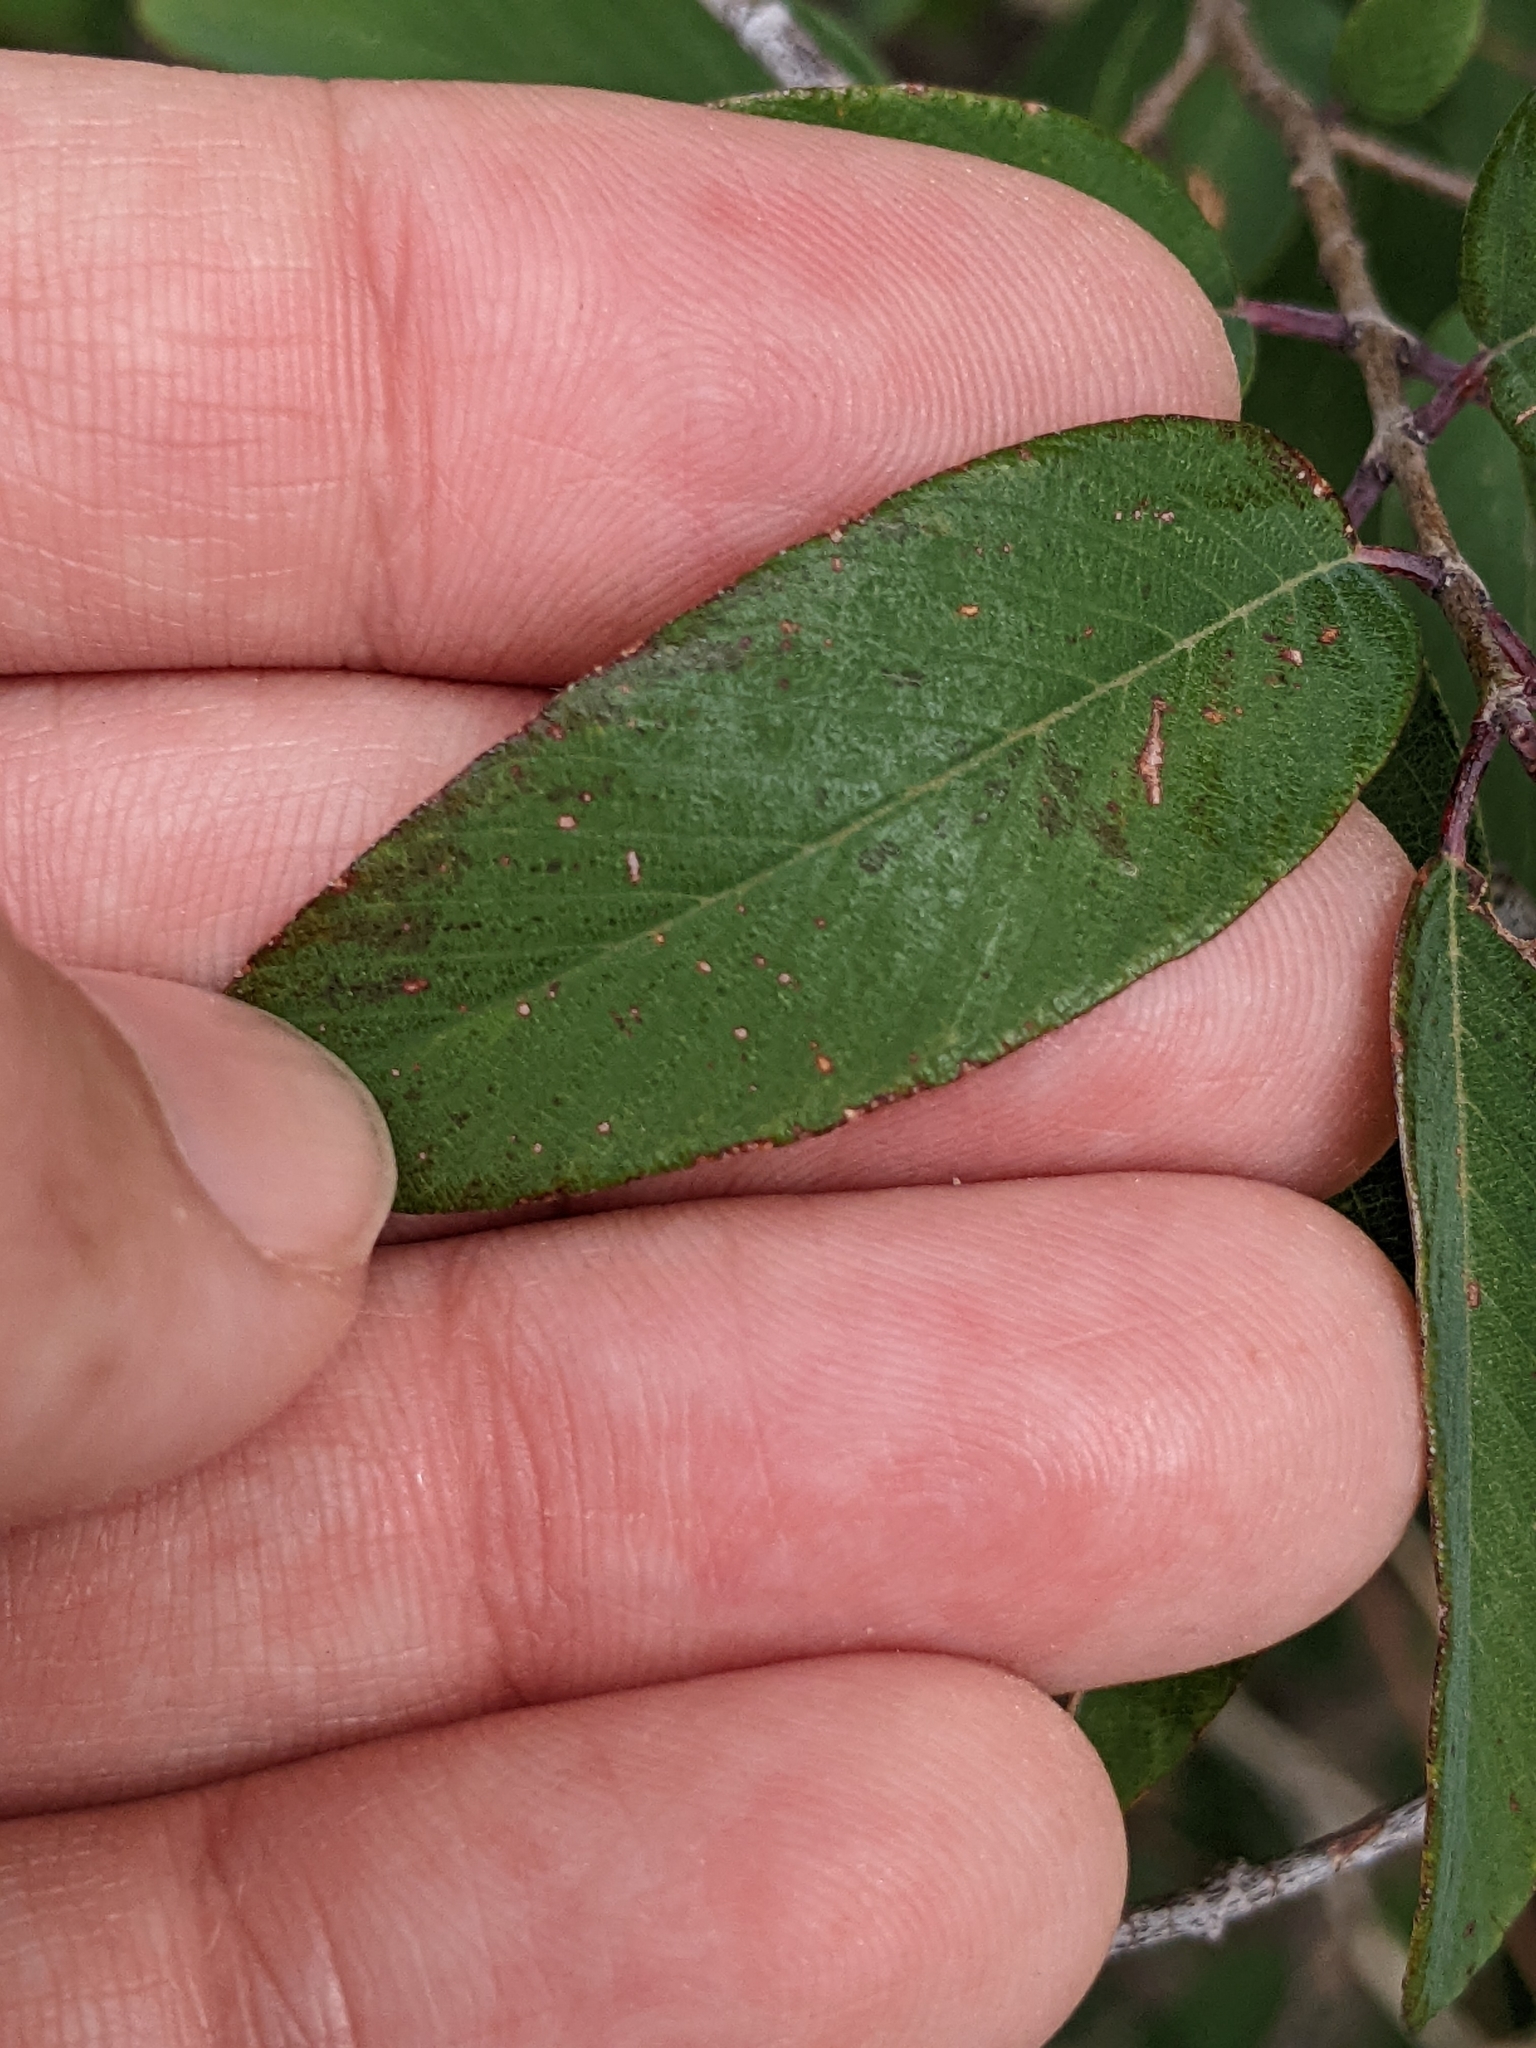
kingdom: Plantae
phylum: Tracheophyta
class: Magnoliopsida
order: Rosales
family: Rhamnaceae
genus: Karwinskia
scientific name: Karwinskia humboldtiana
